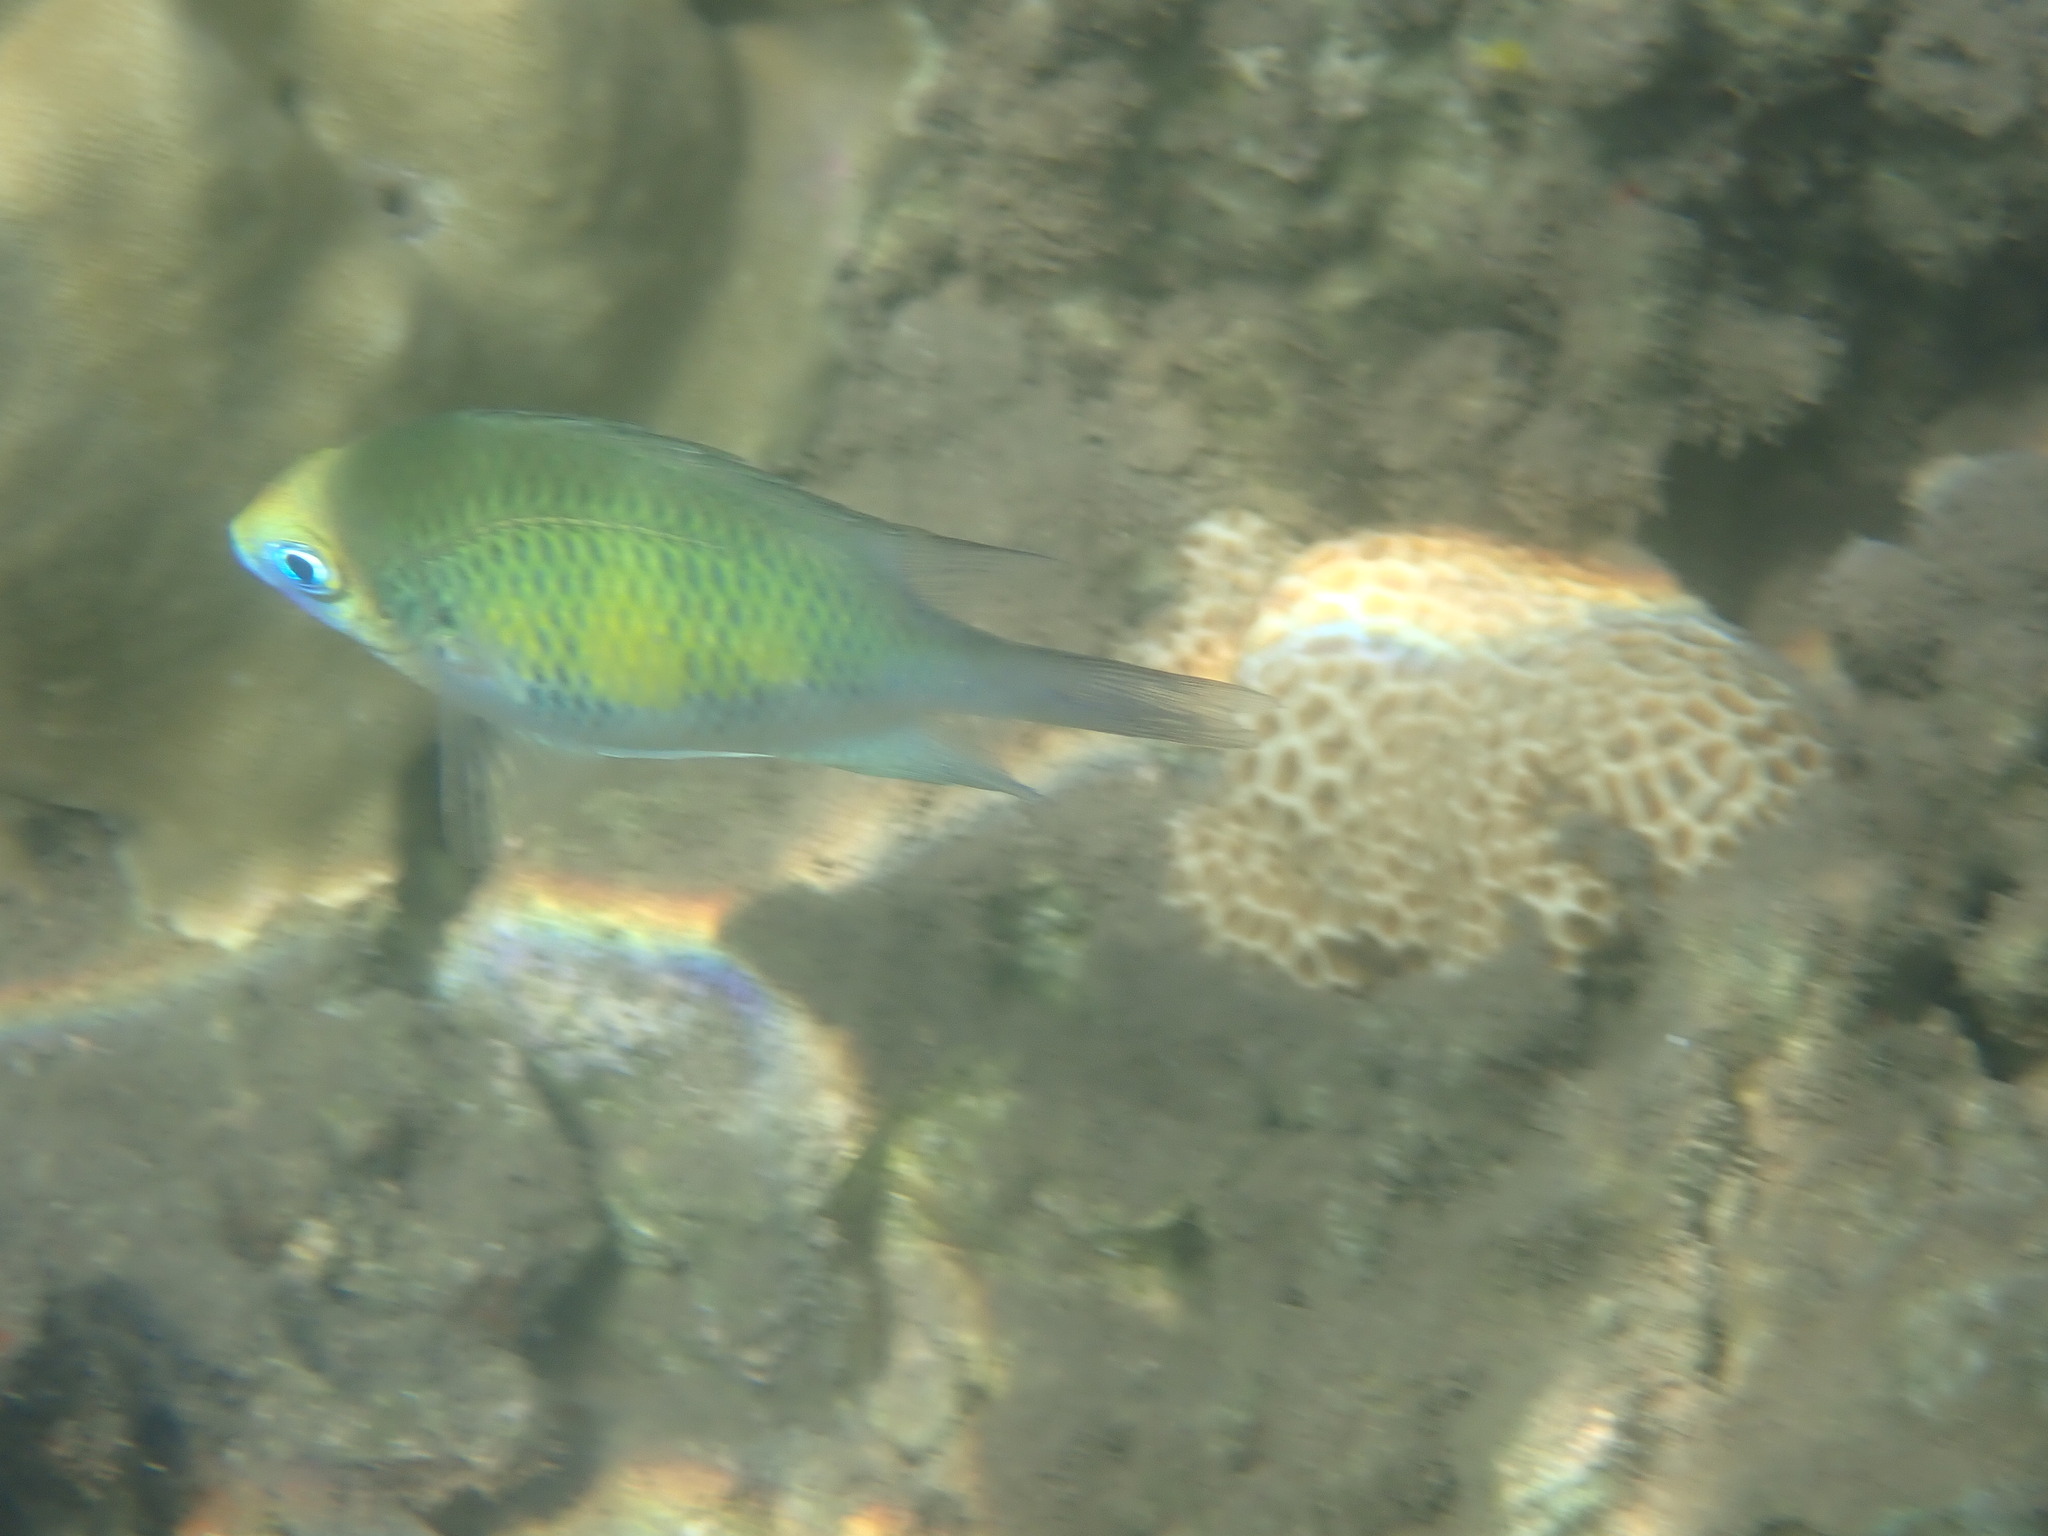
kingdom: Animalia
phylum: Chordata
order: Perciformes
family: Pomacentridae
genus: Amblyglyphidodon
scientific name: Amblyglyphidodon curacao
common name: Staghorn damsel
